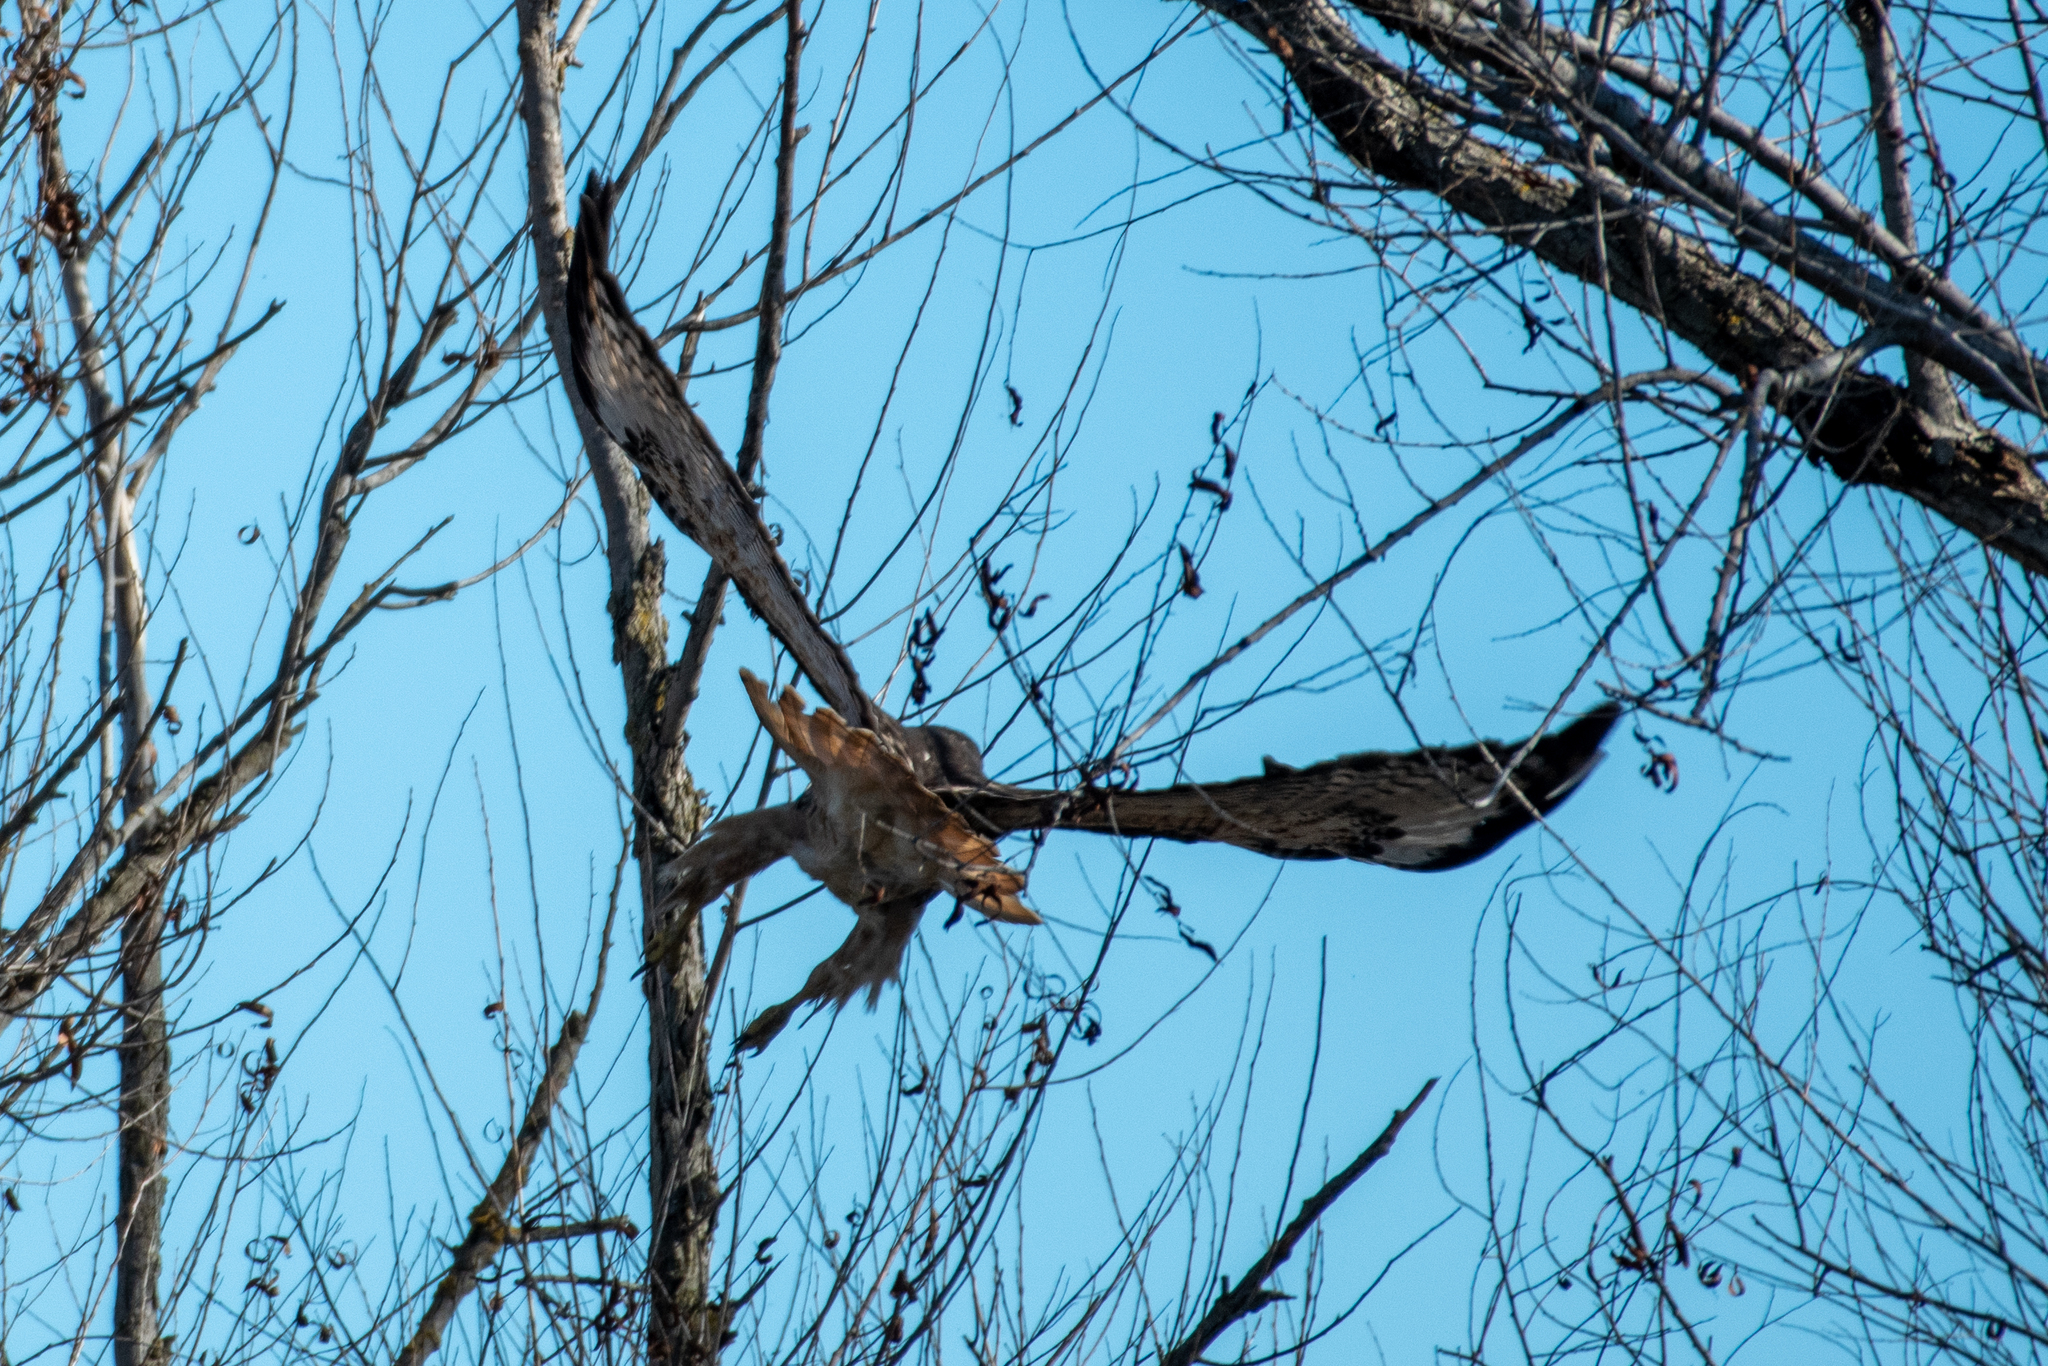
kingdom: Animalia
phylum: Chordata
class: Aves
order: Accipitriformes
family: Accipitridae
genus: Buteo
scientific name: Buteo jamaicensis
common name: Red-tailed hawk
